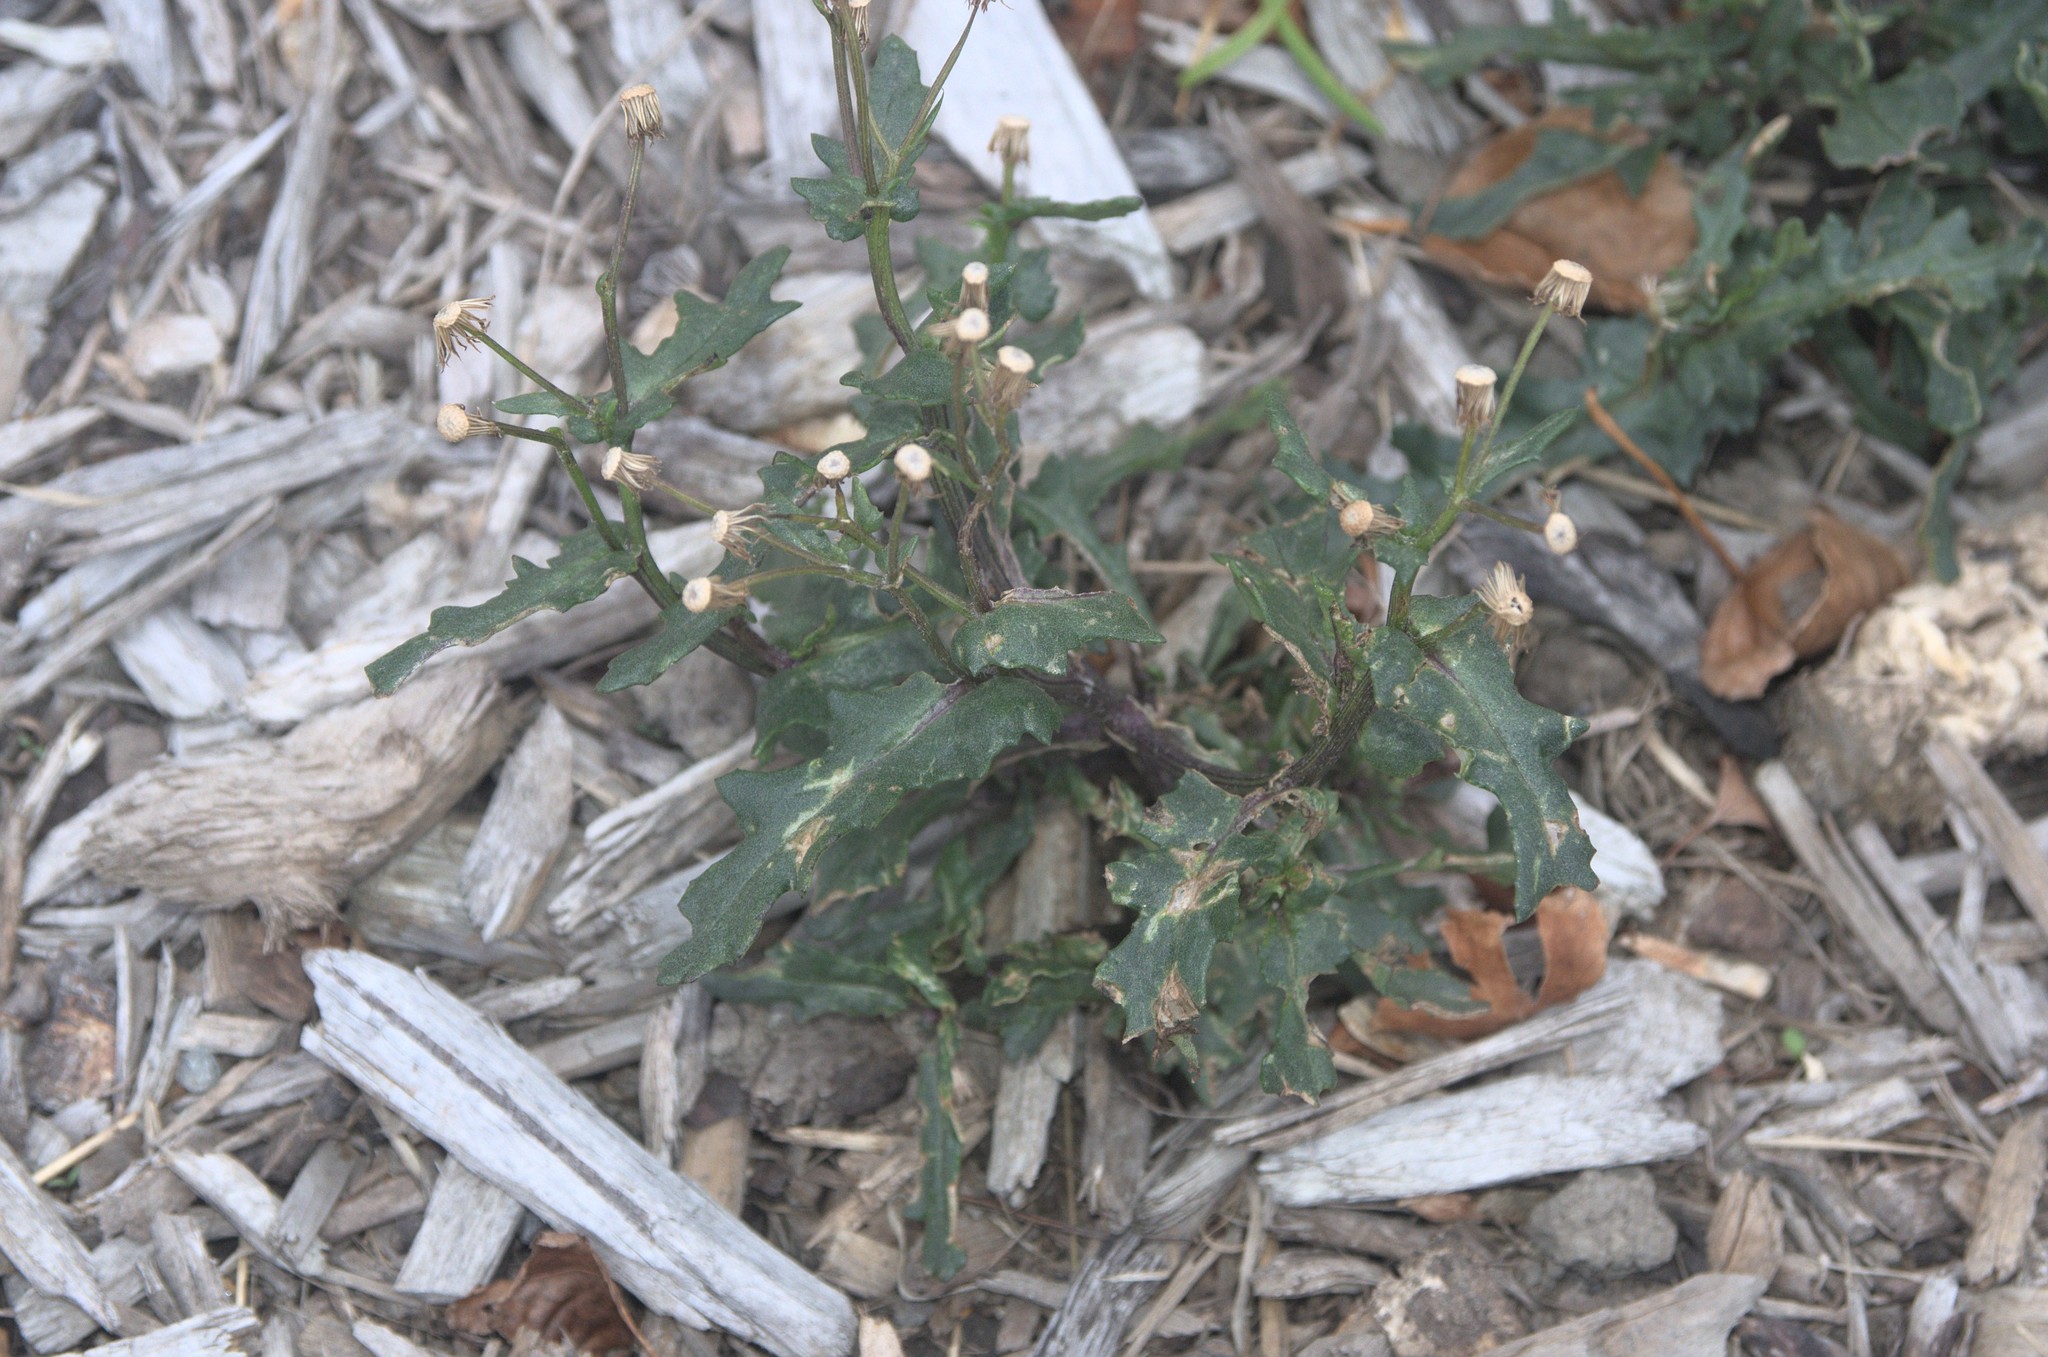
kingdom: Plantae
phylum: Tracheophyta
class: Magnoliopsida
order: Asterales
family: Asteraceae
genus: Senecio
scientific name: Senecio vulgaris
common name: Old-man-in-the-spring
